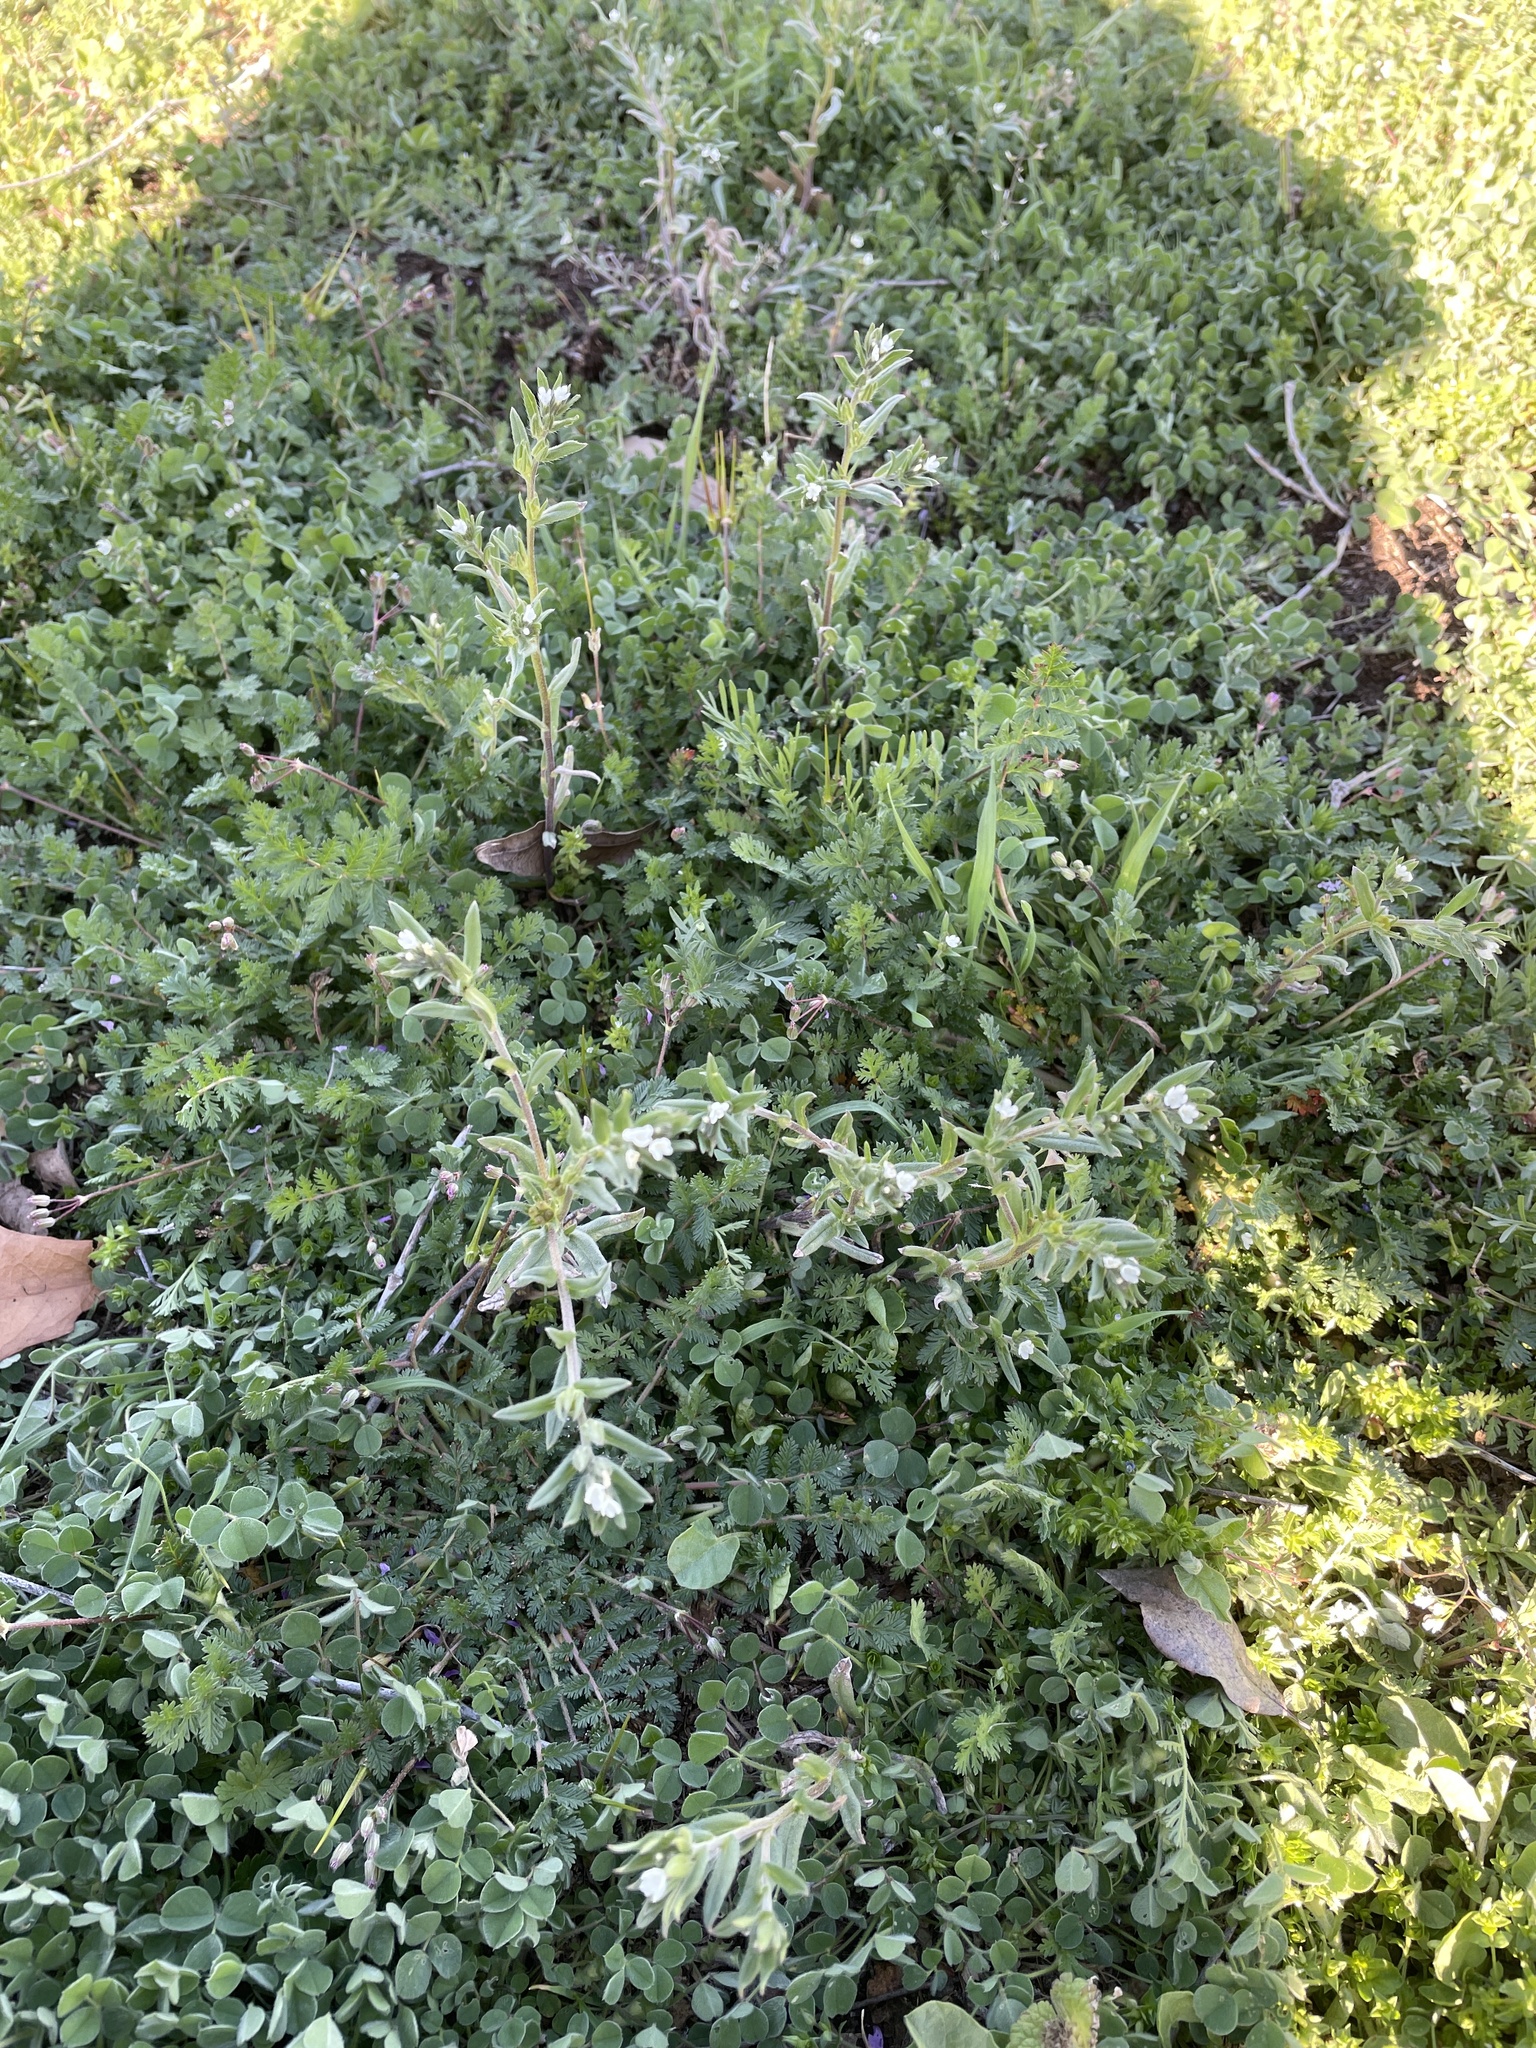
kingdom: Plantae
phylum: Tracheophyta
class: Magnoliopsida
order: Boraginales
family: Boraginaceae
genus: Buglossoides
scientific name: Buglossoides arvensis
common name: Corn gromwell
